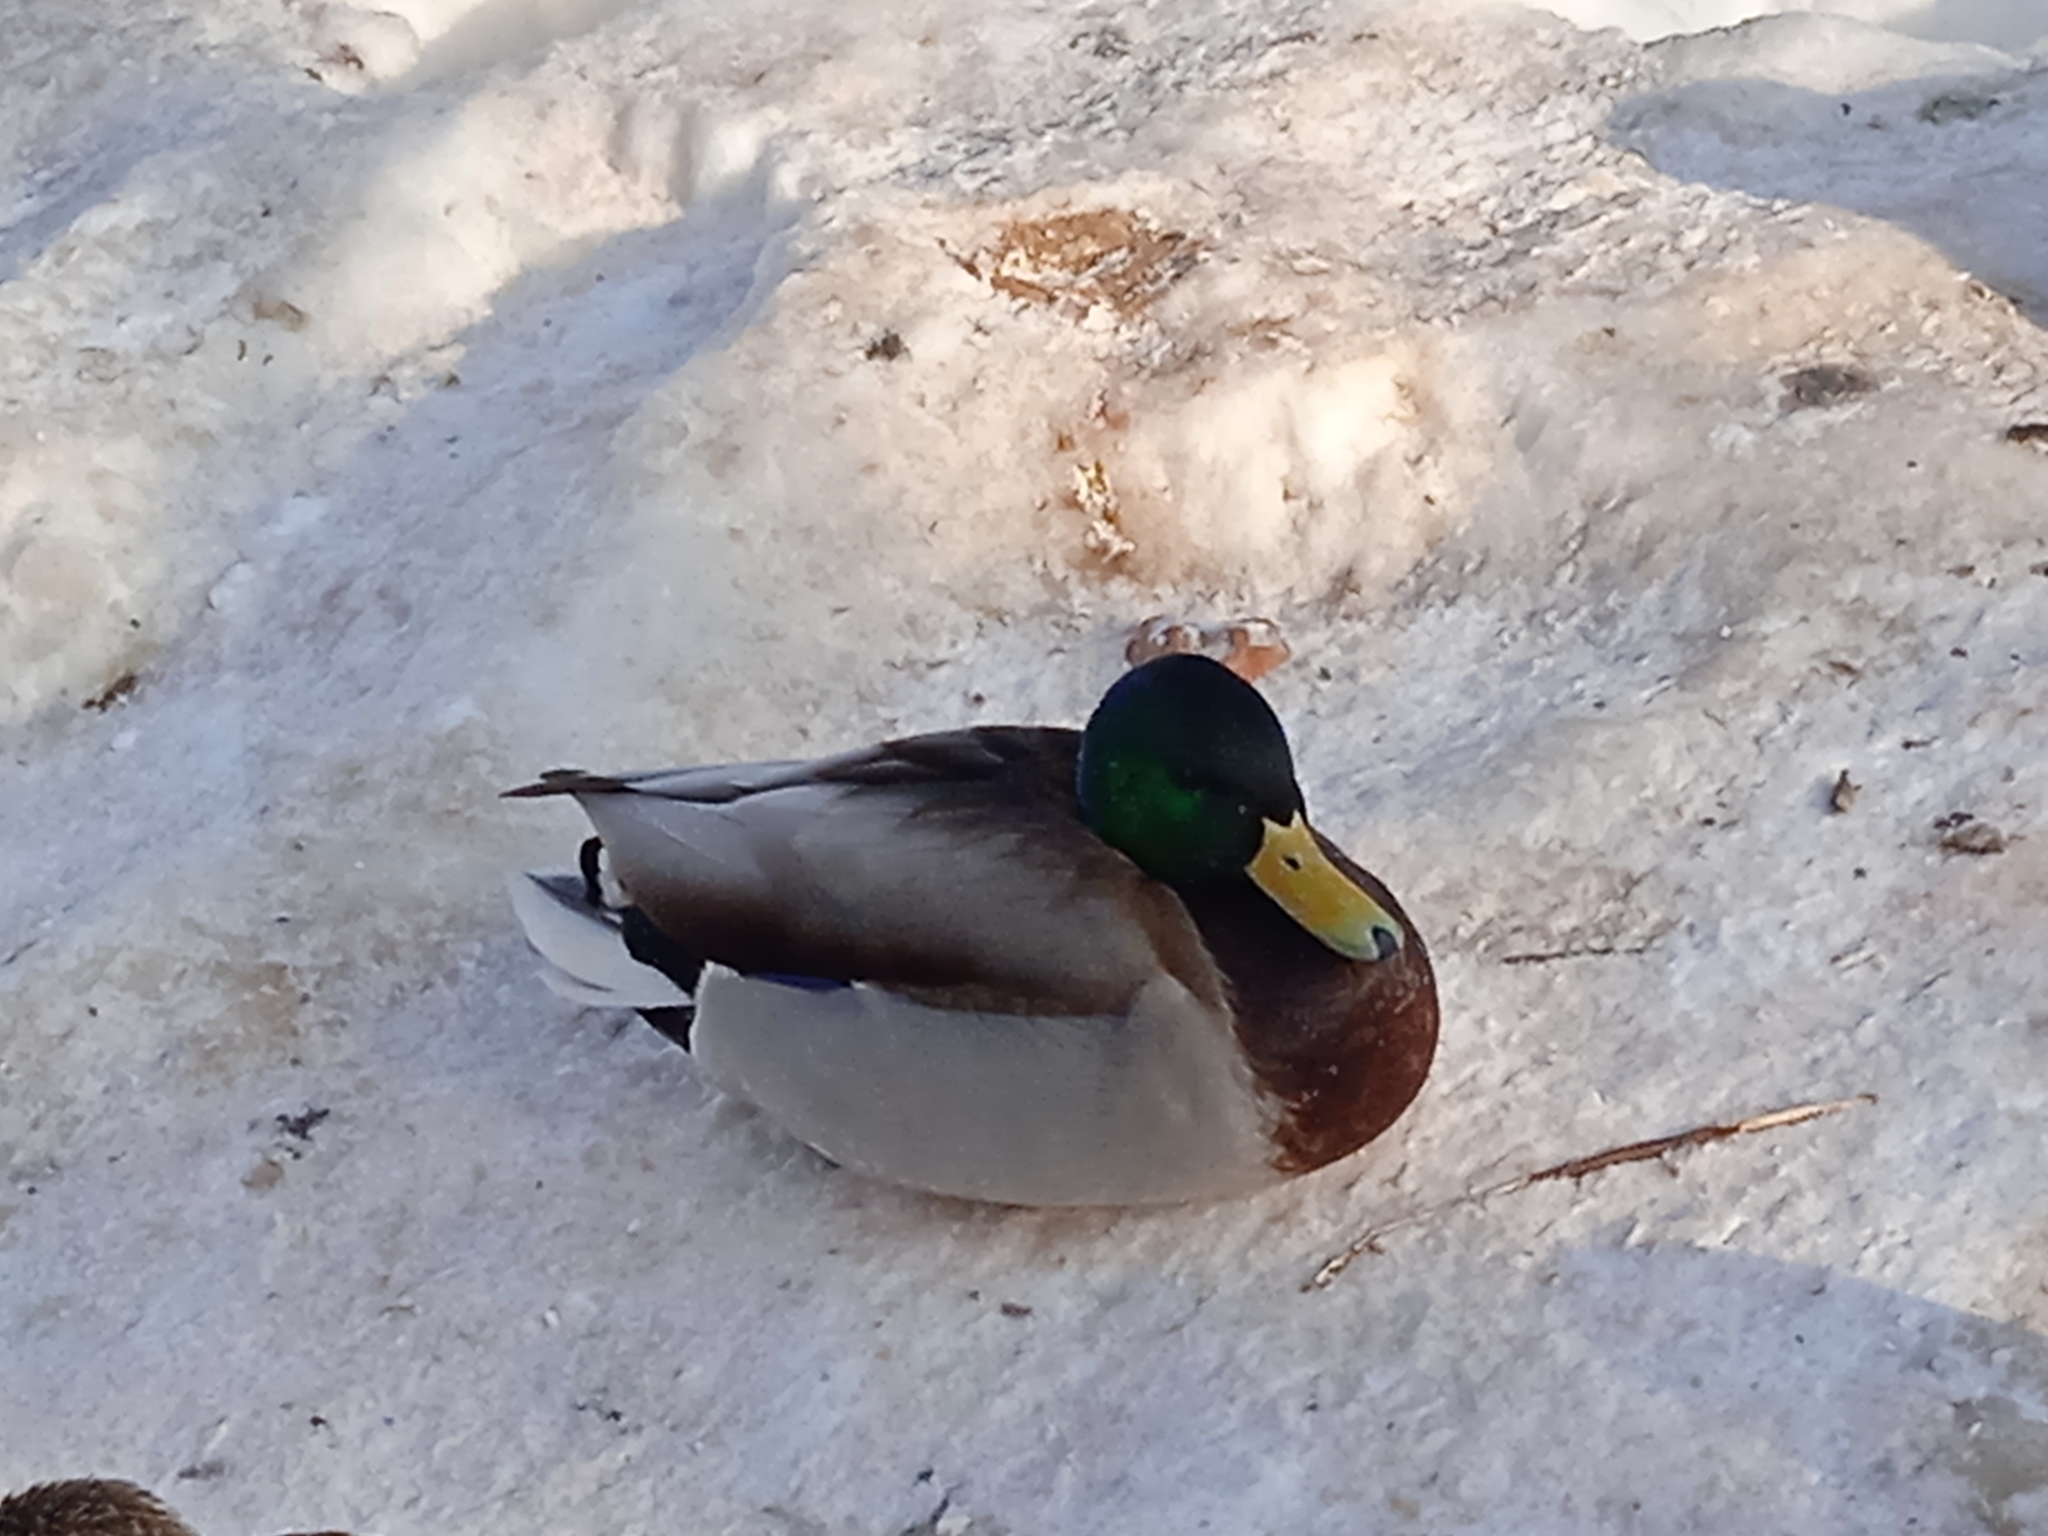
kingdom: Animalia
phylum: Chordata
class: Aves
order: Anseriformes
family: Anatidae
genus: Anas
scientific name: Anas platyrhynchos
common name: Mallard
